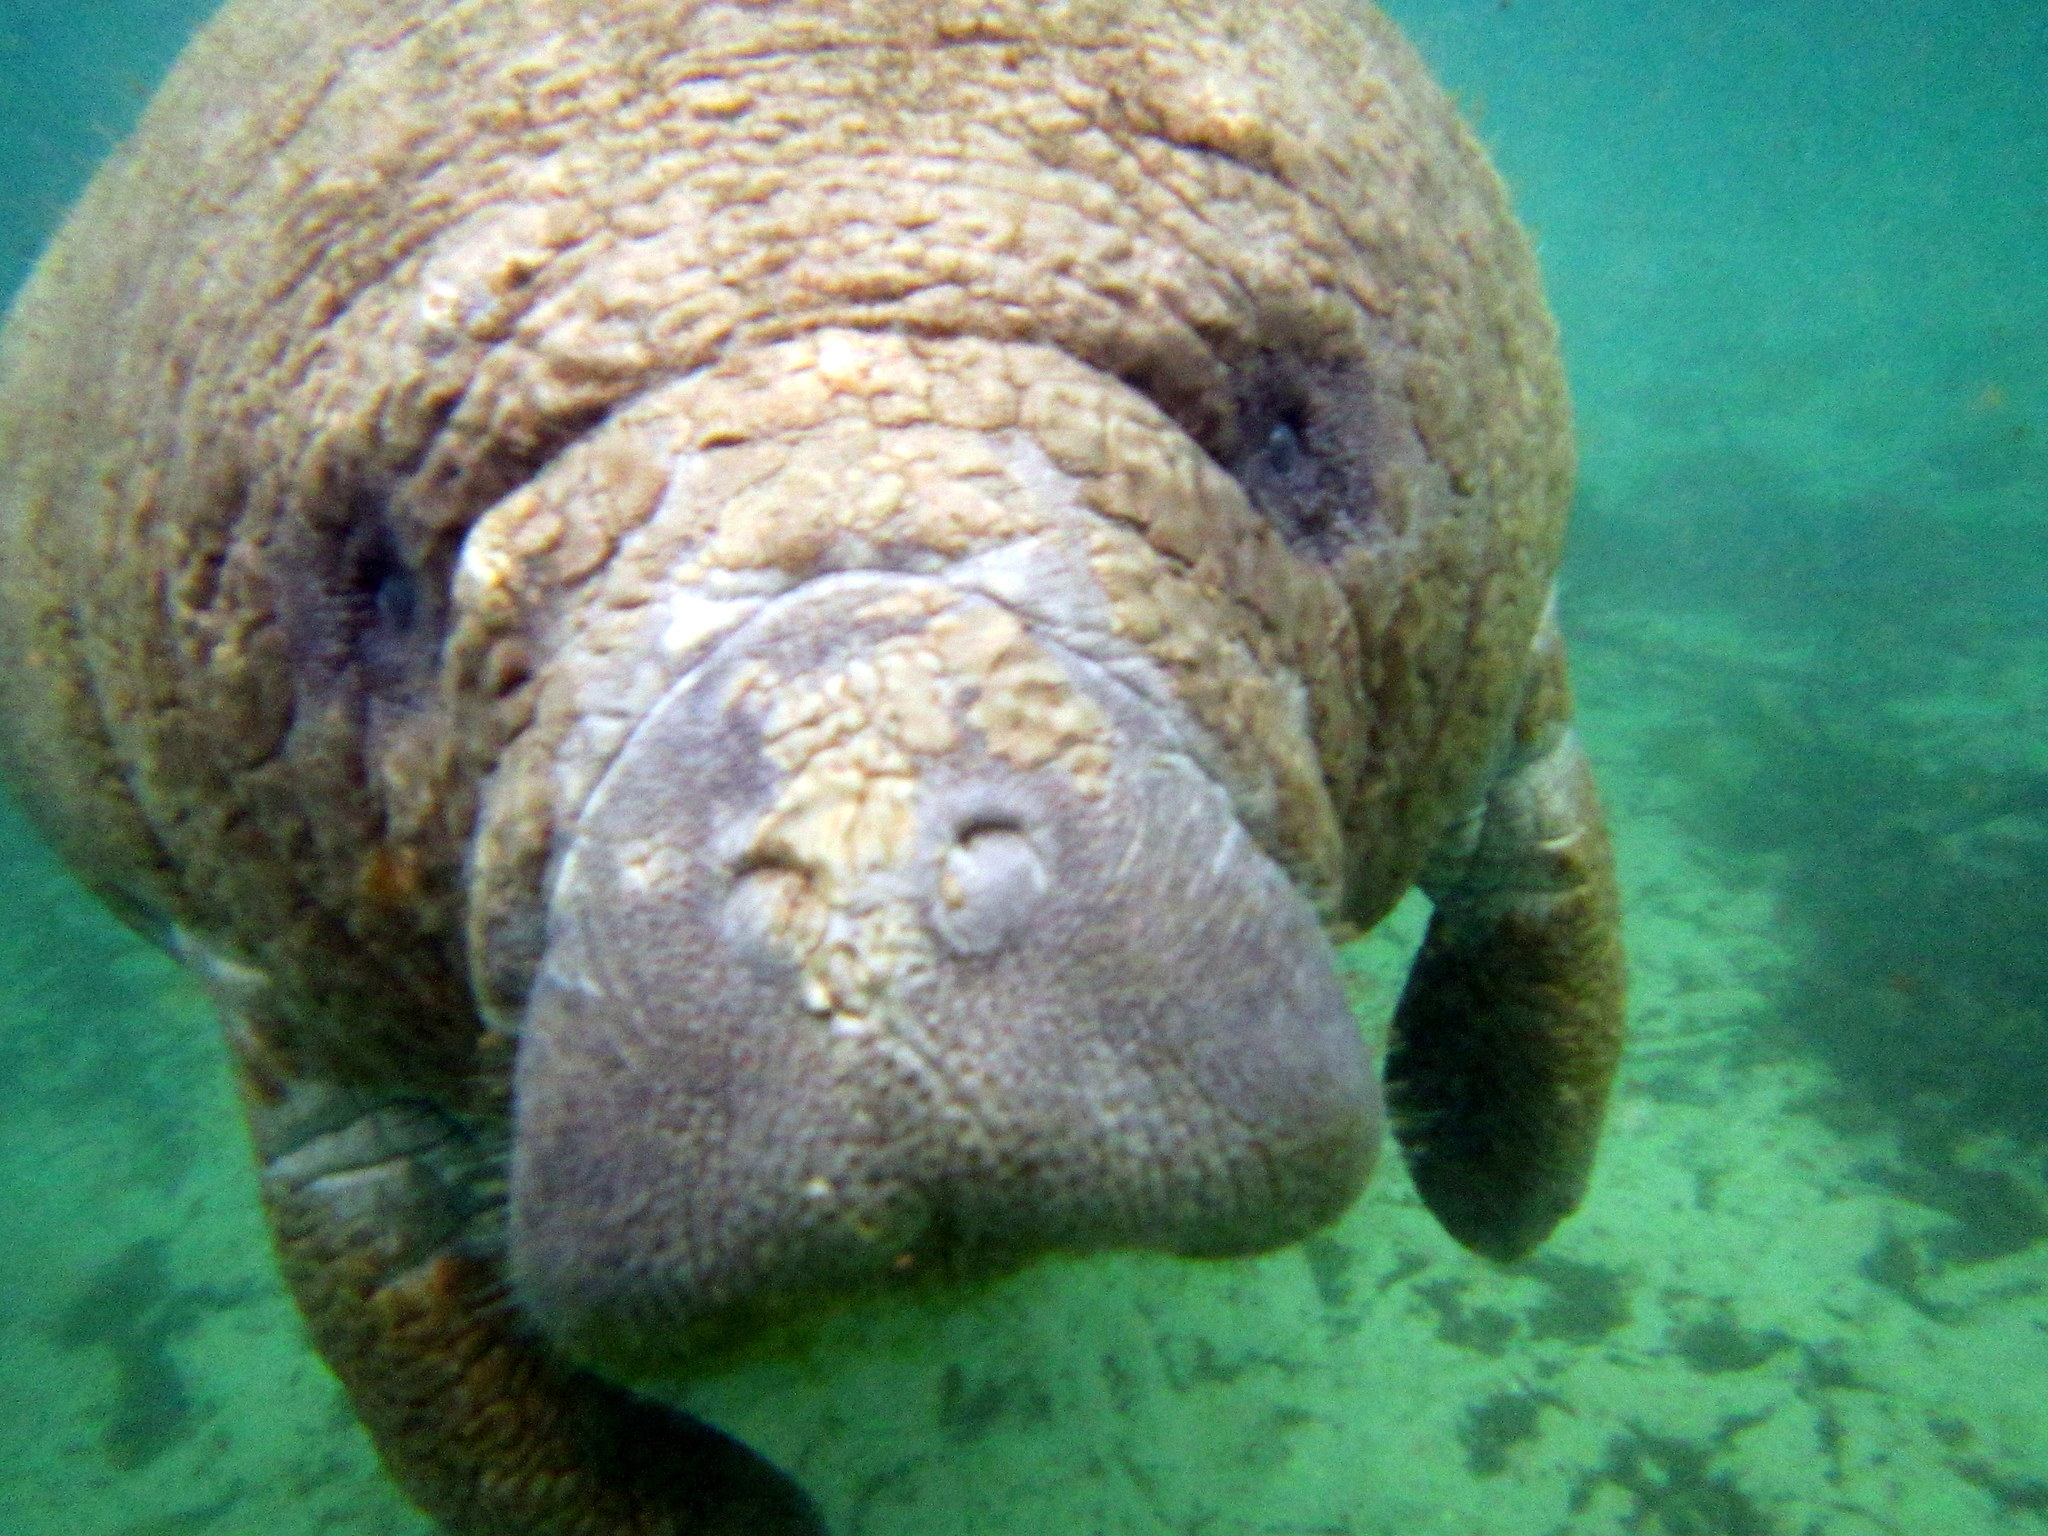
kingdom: Animalia
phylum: Chordata
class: Mammalia
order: Sirenia
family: Trichechidae
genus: Trichechus
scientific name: Trichechus manatus
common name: West indian manatee
